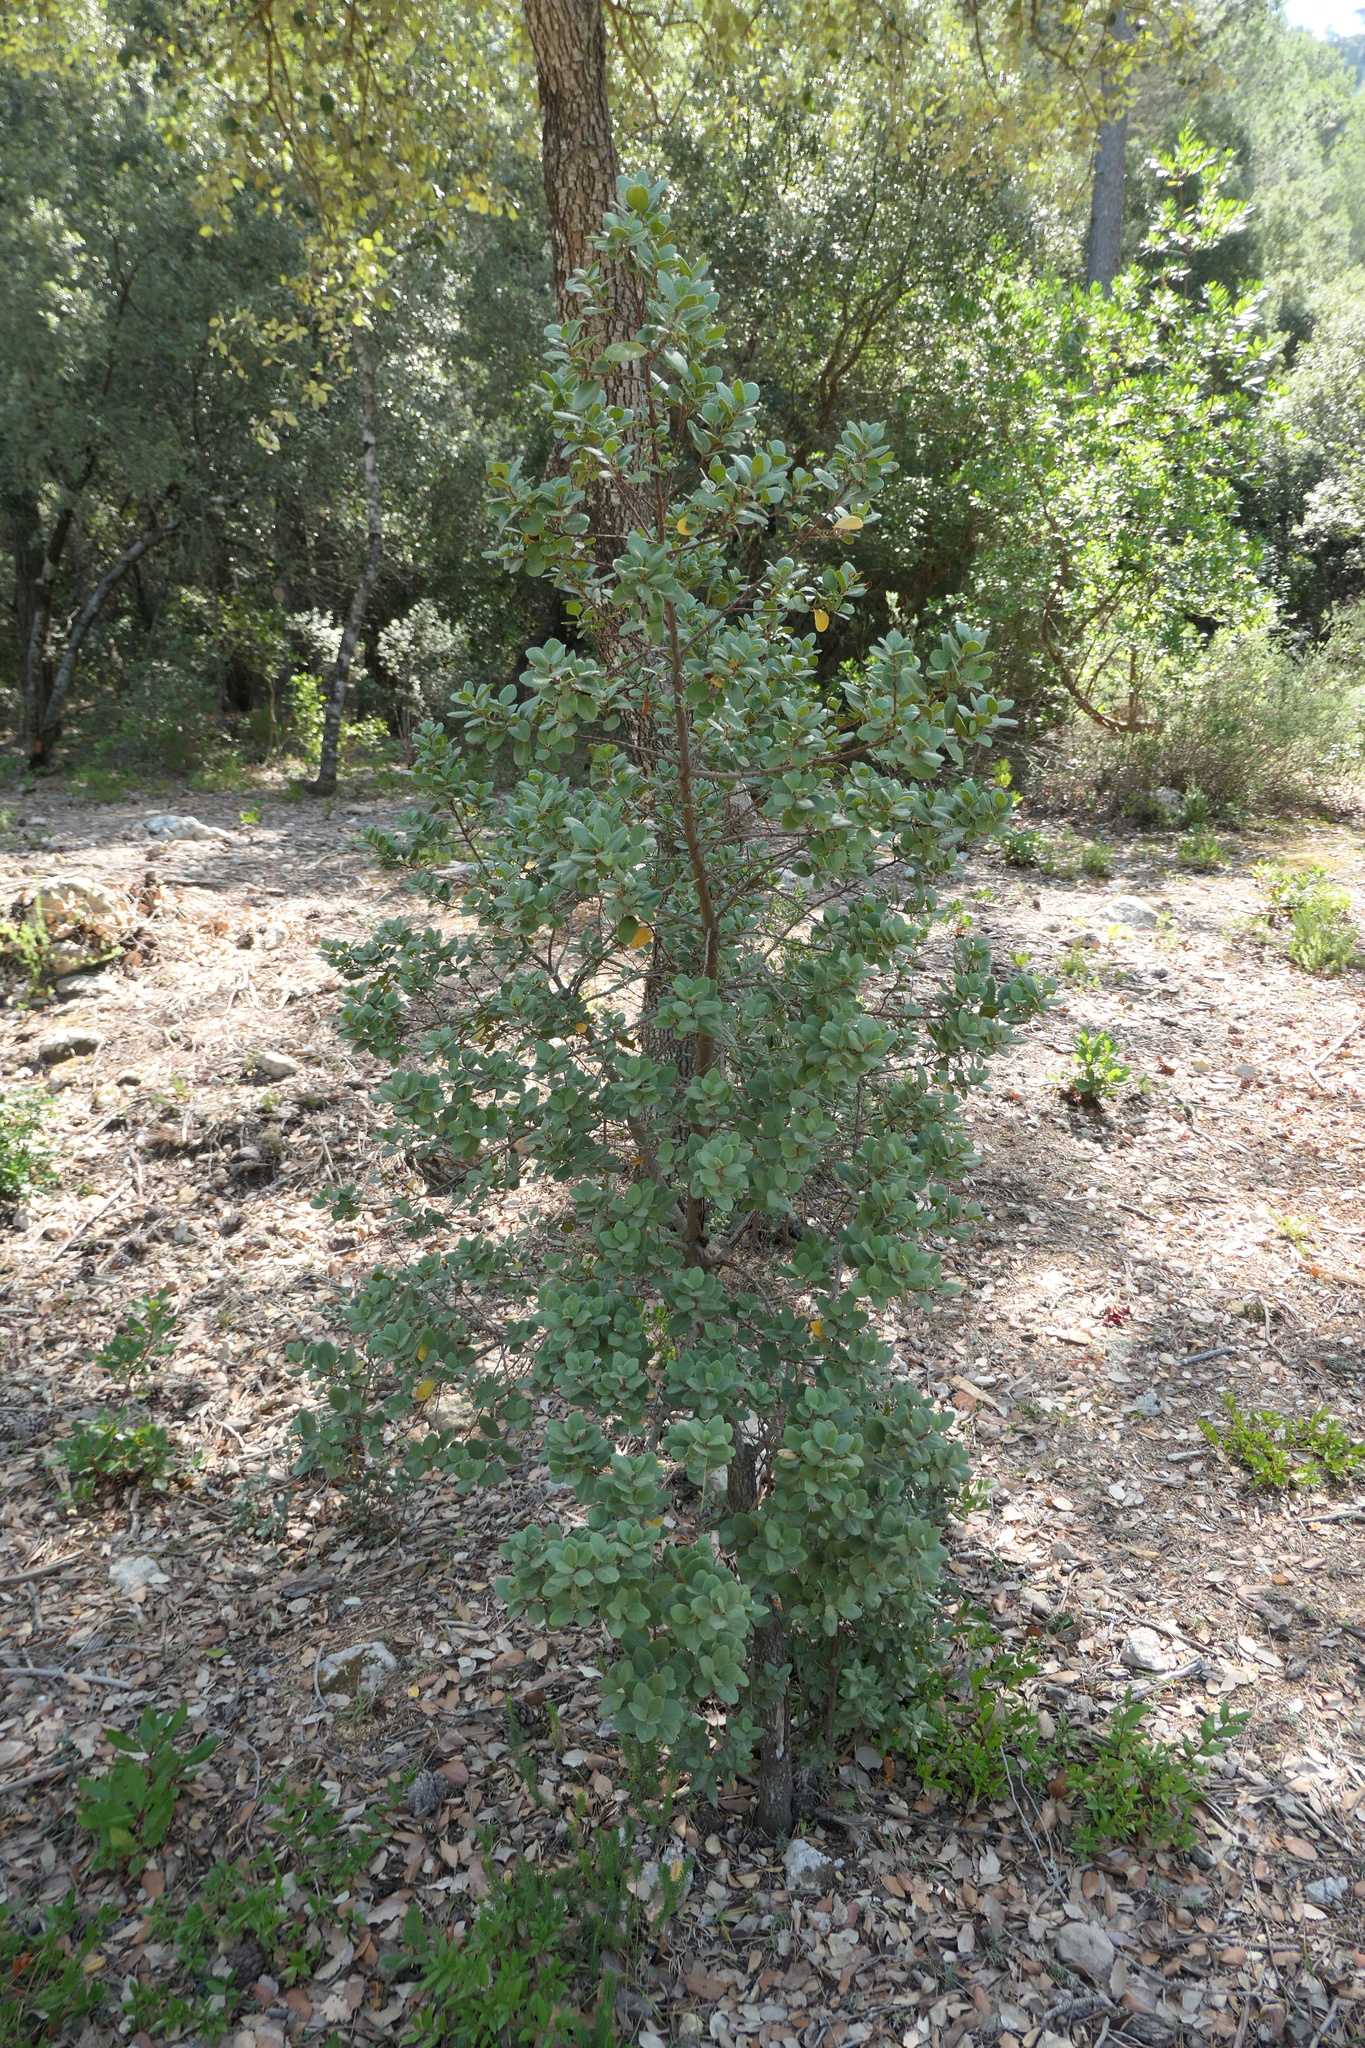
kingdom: Plantae
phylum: Tracheophyta
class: Magnoliopsida
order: Rosales
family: Rhamnaceae
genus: Rhamnus
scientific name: Rhamnus ludovici-salvatoris
